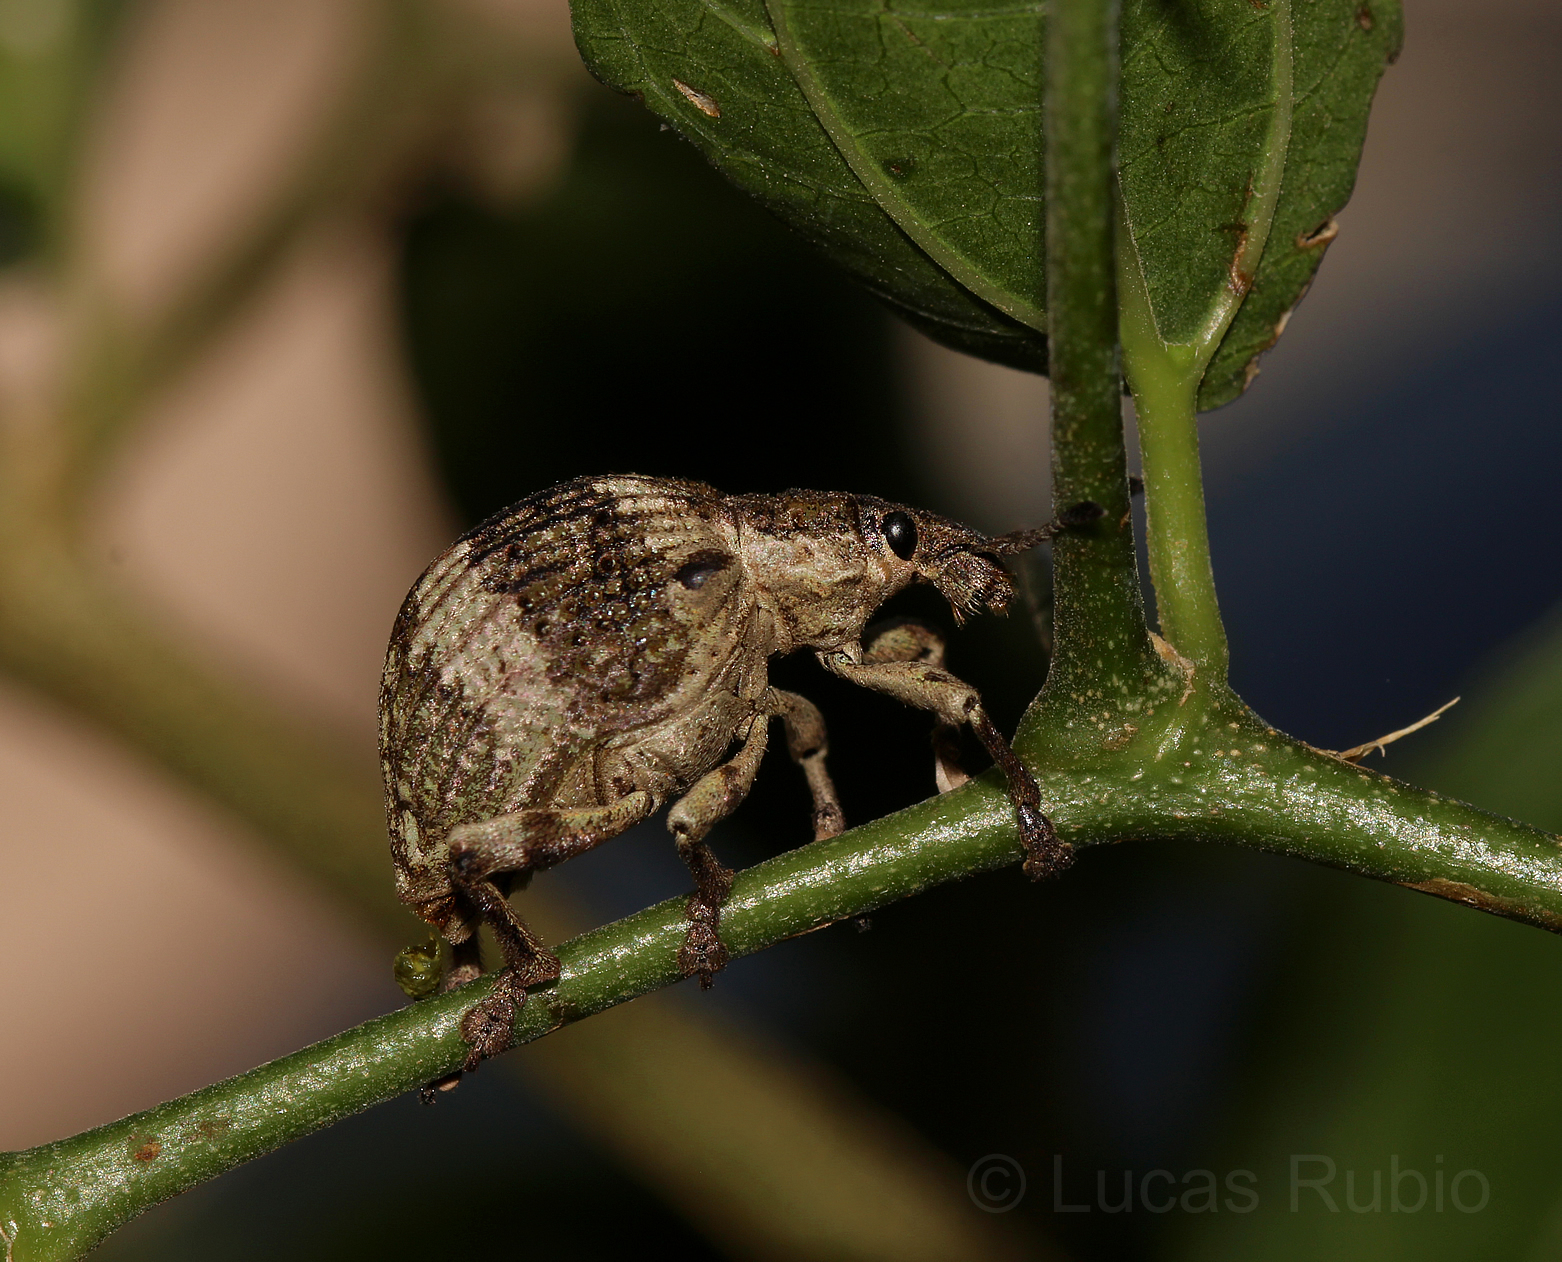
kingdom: Animalia
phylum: Arthropoda
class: Insecta
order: Coleoptera
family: Curculionidae
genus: Polyteles
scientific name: Polyteles guerini
